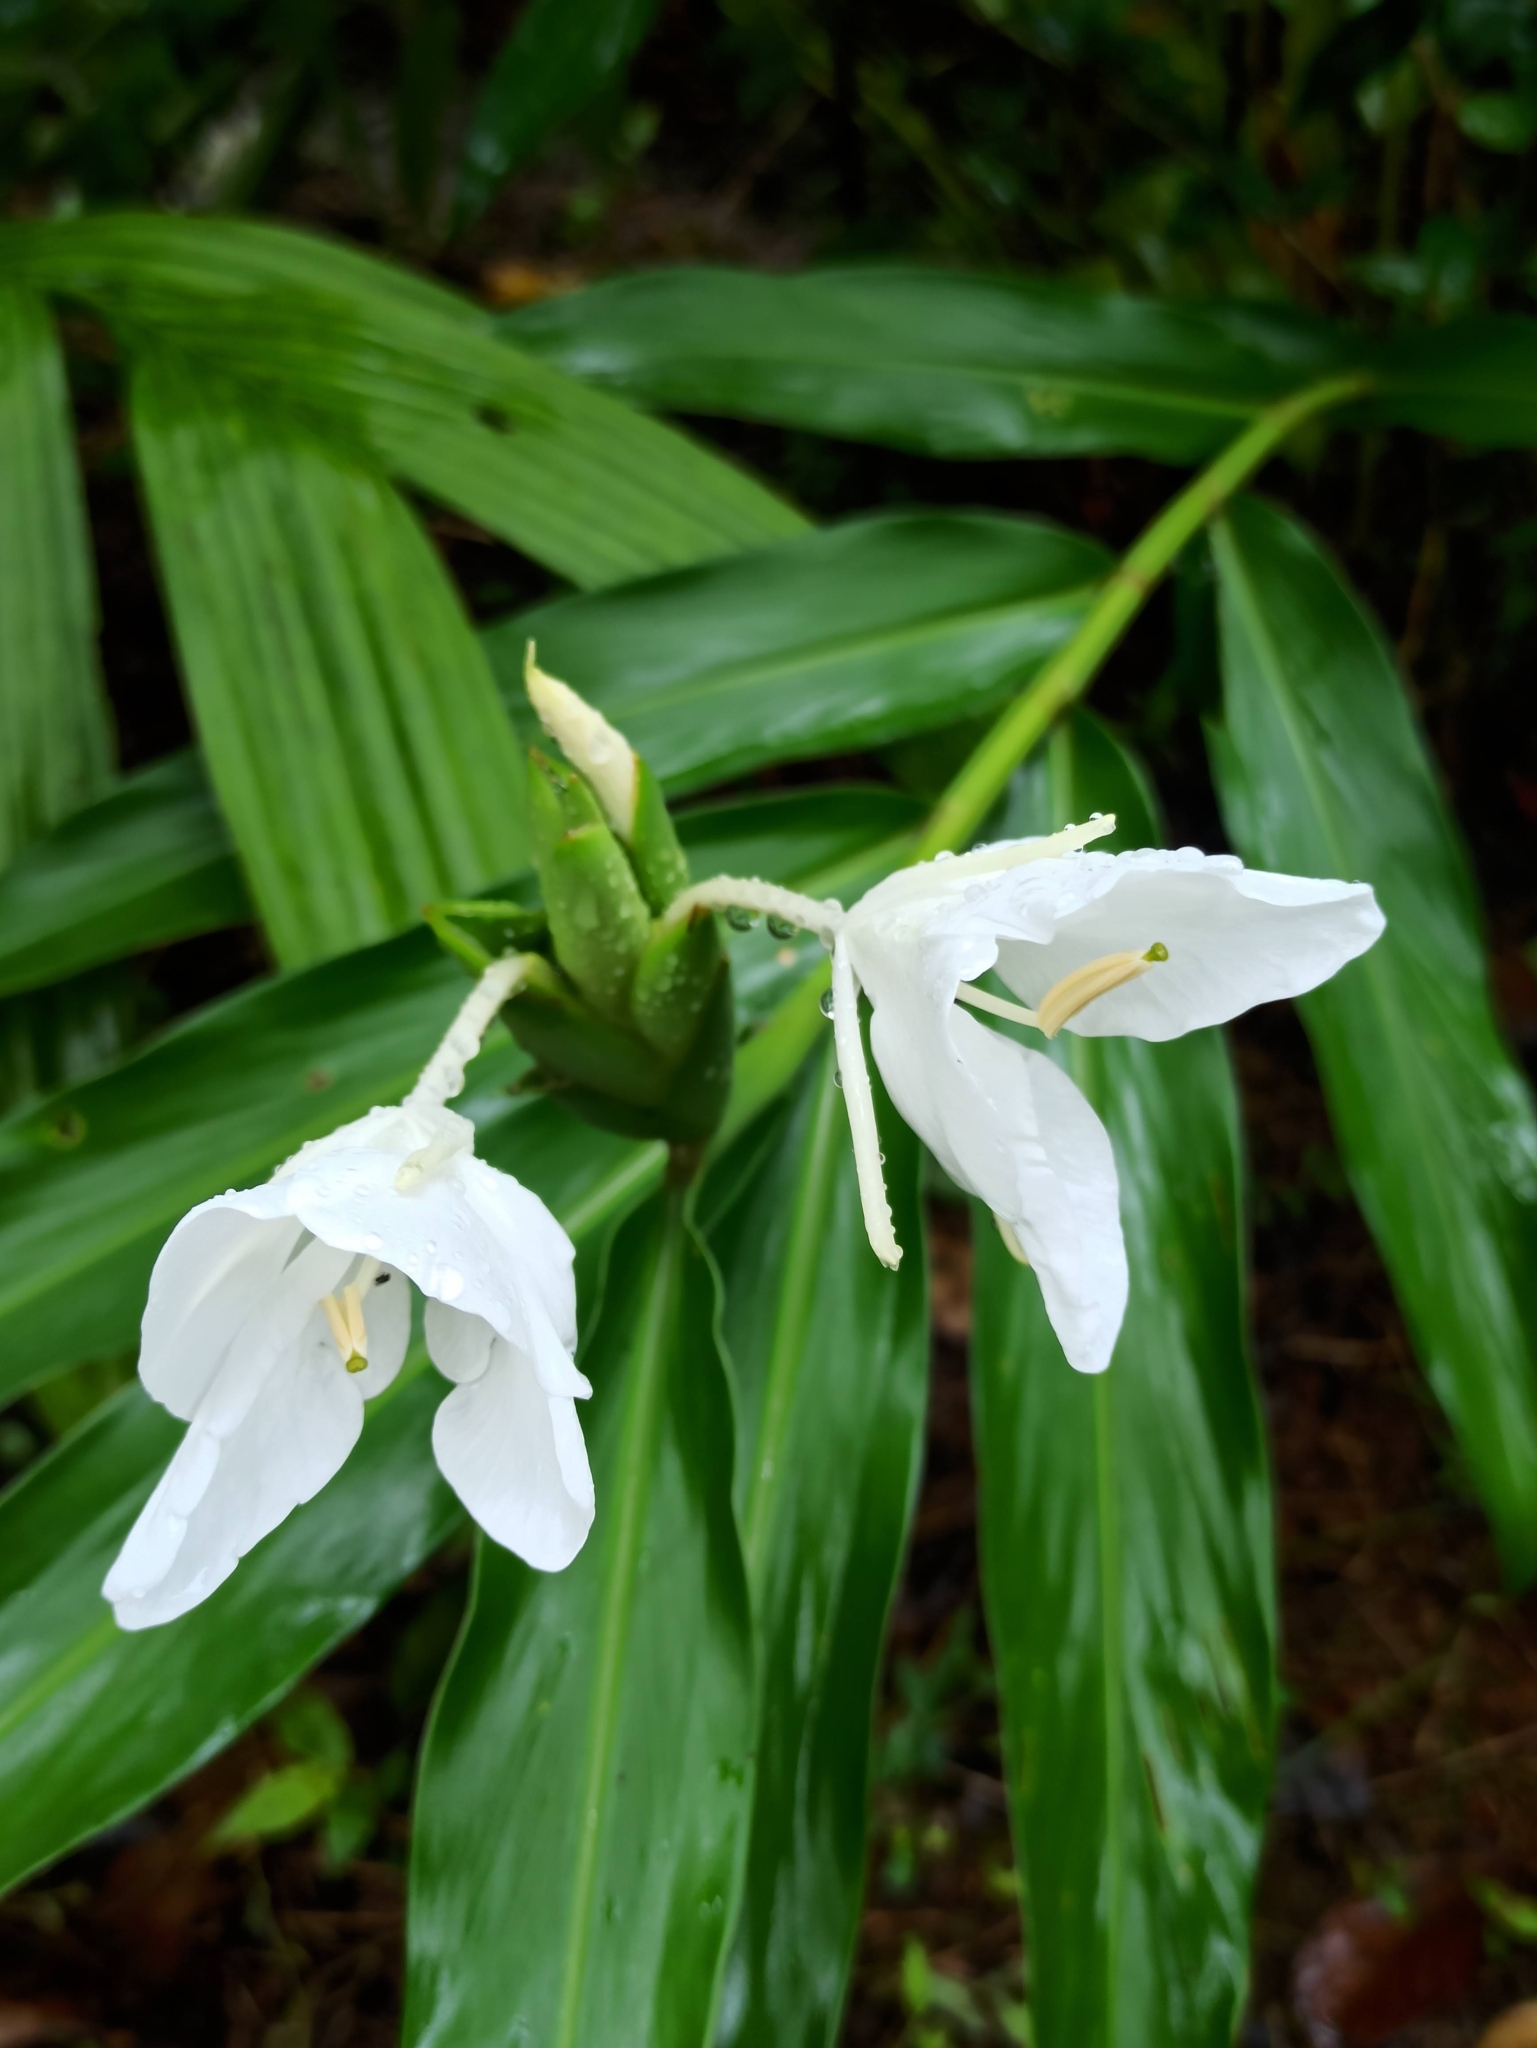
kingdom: Plantae
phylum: Tracheophyta
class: Liliopsida
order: Zingiberales
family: Zingiberaceae
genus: Hedychium
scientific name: Hedychium coronarium
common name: White garland-lily
